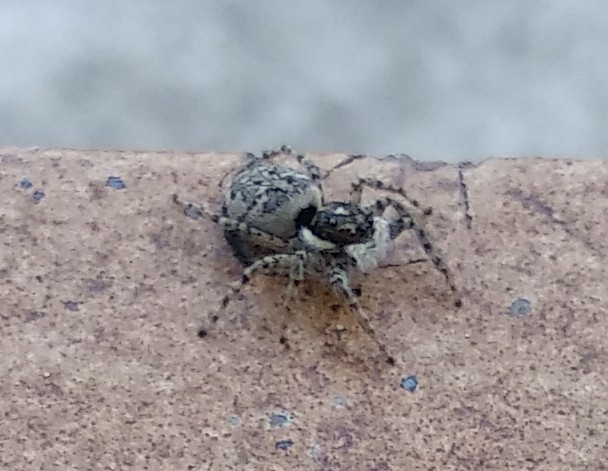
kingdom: Animalia
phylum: Arthropoda
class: Arachnida
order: Araneae
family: Salticidae
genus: Menemerus
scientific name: Menemerus semilimbatus
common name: Jumping spider
